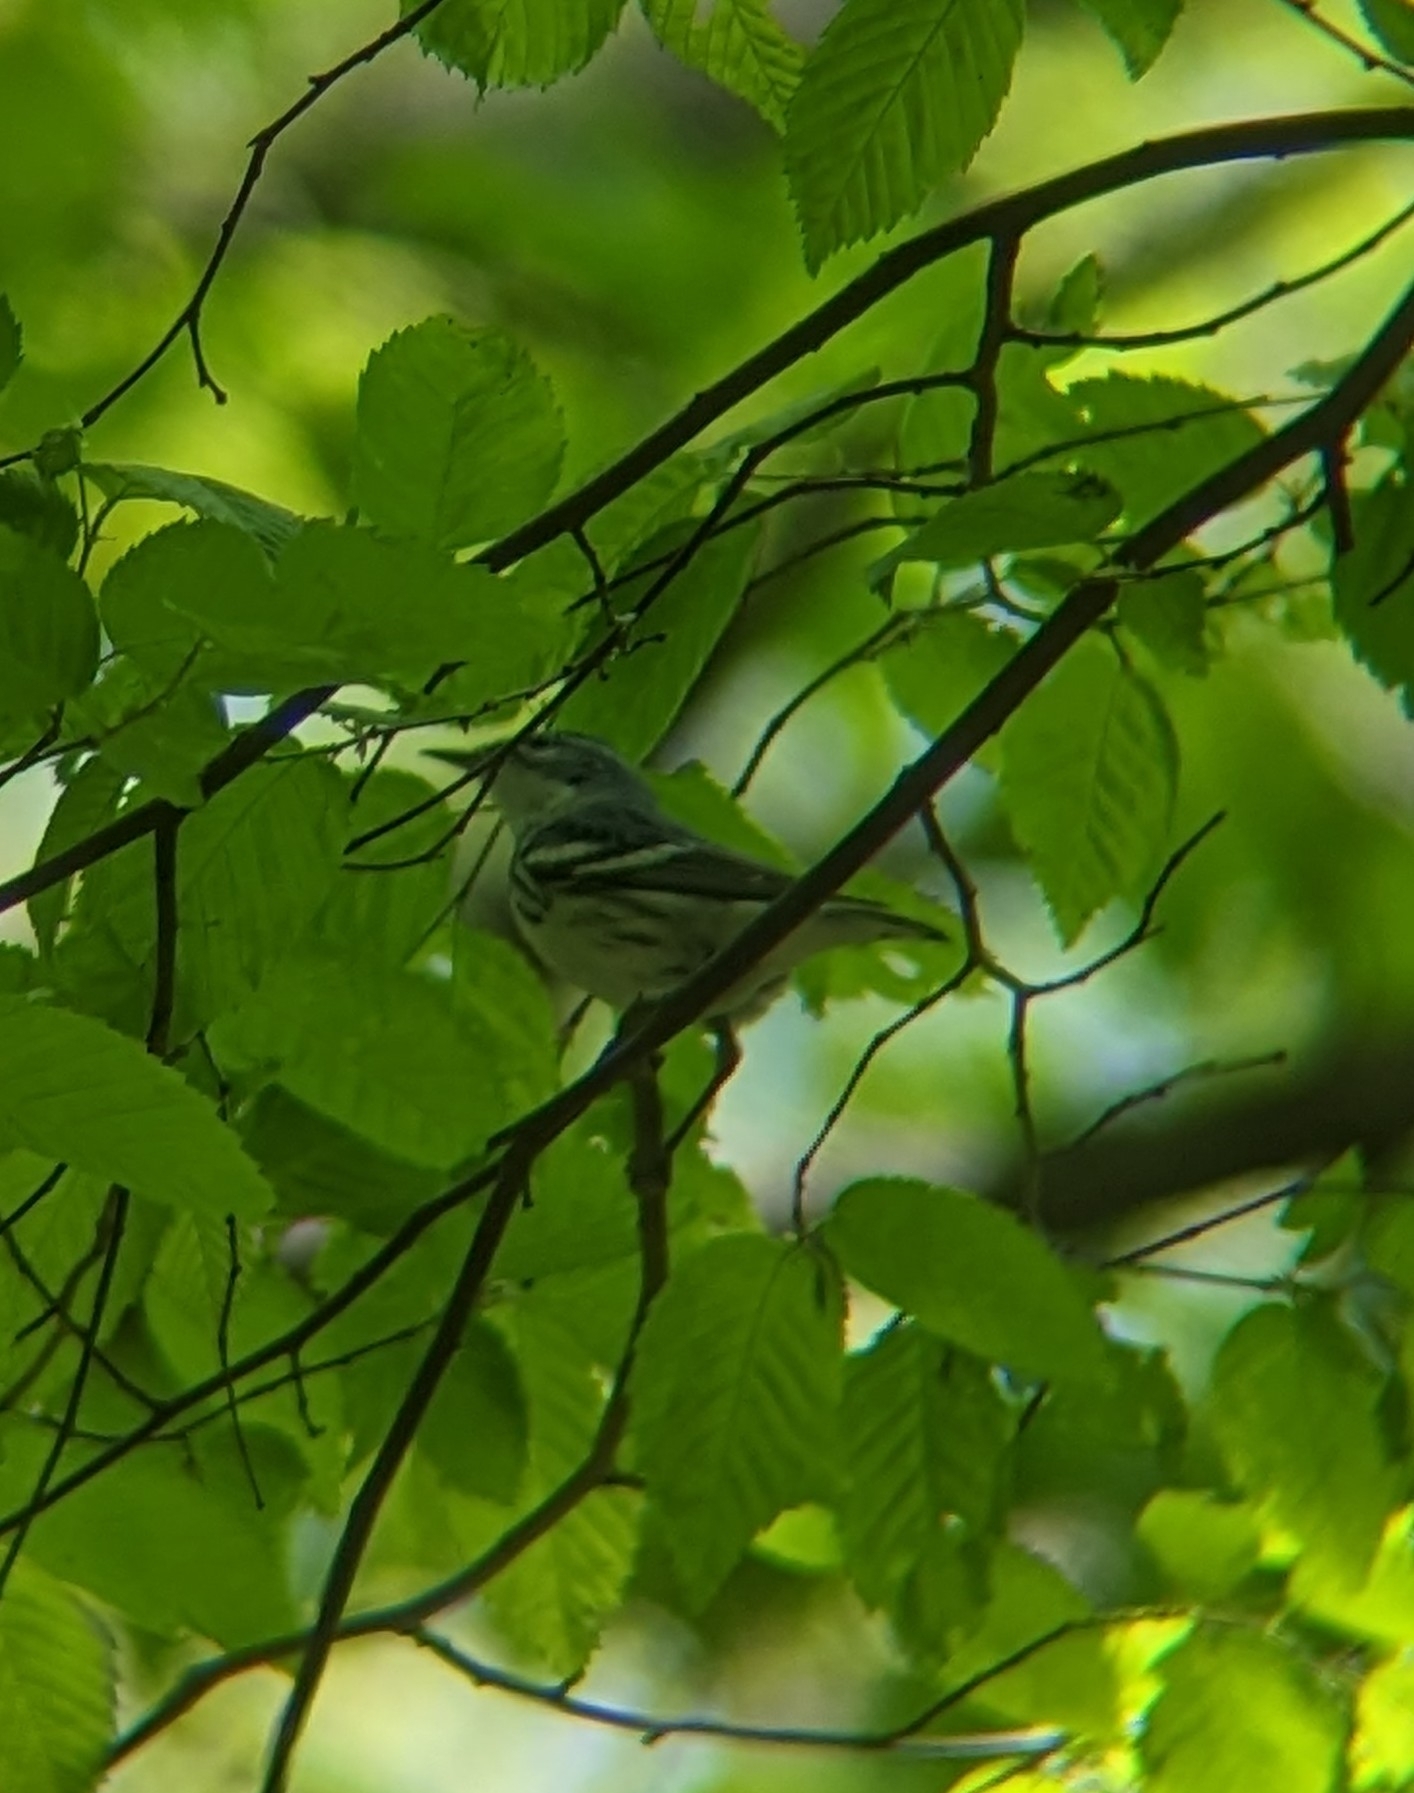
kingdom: Animalia
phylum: Chordata
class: Aves
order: Passeriformes
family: Parulidae
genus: Setophaga
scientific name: Setophaga cerulea
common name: Cerulean warbler
